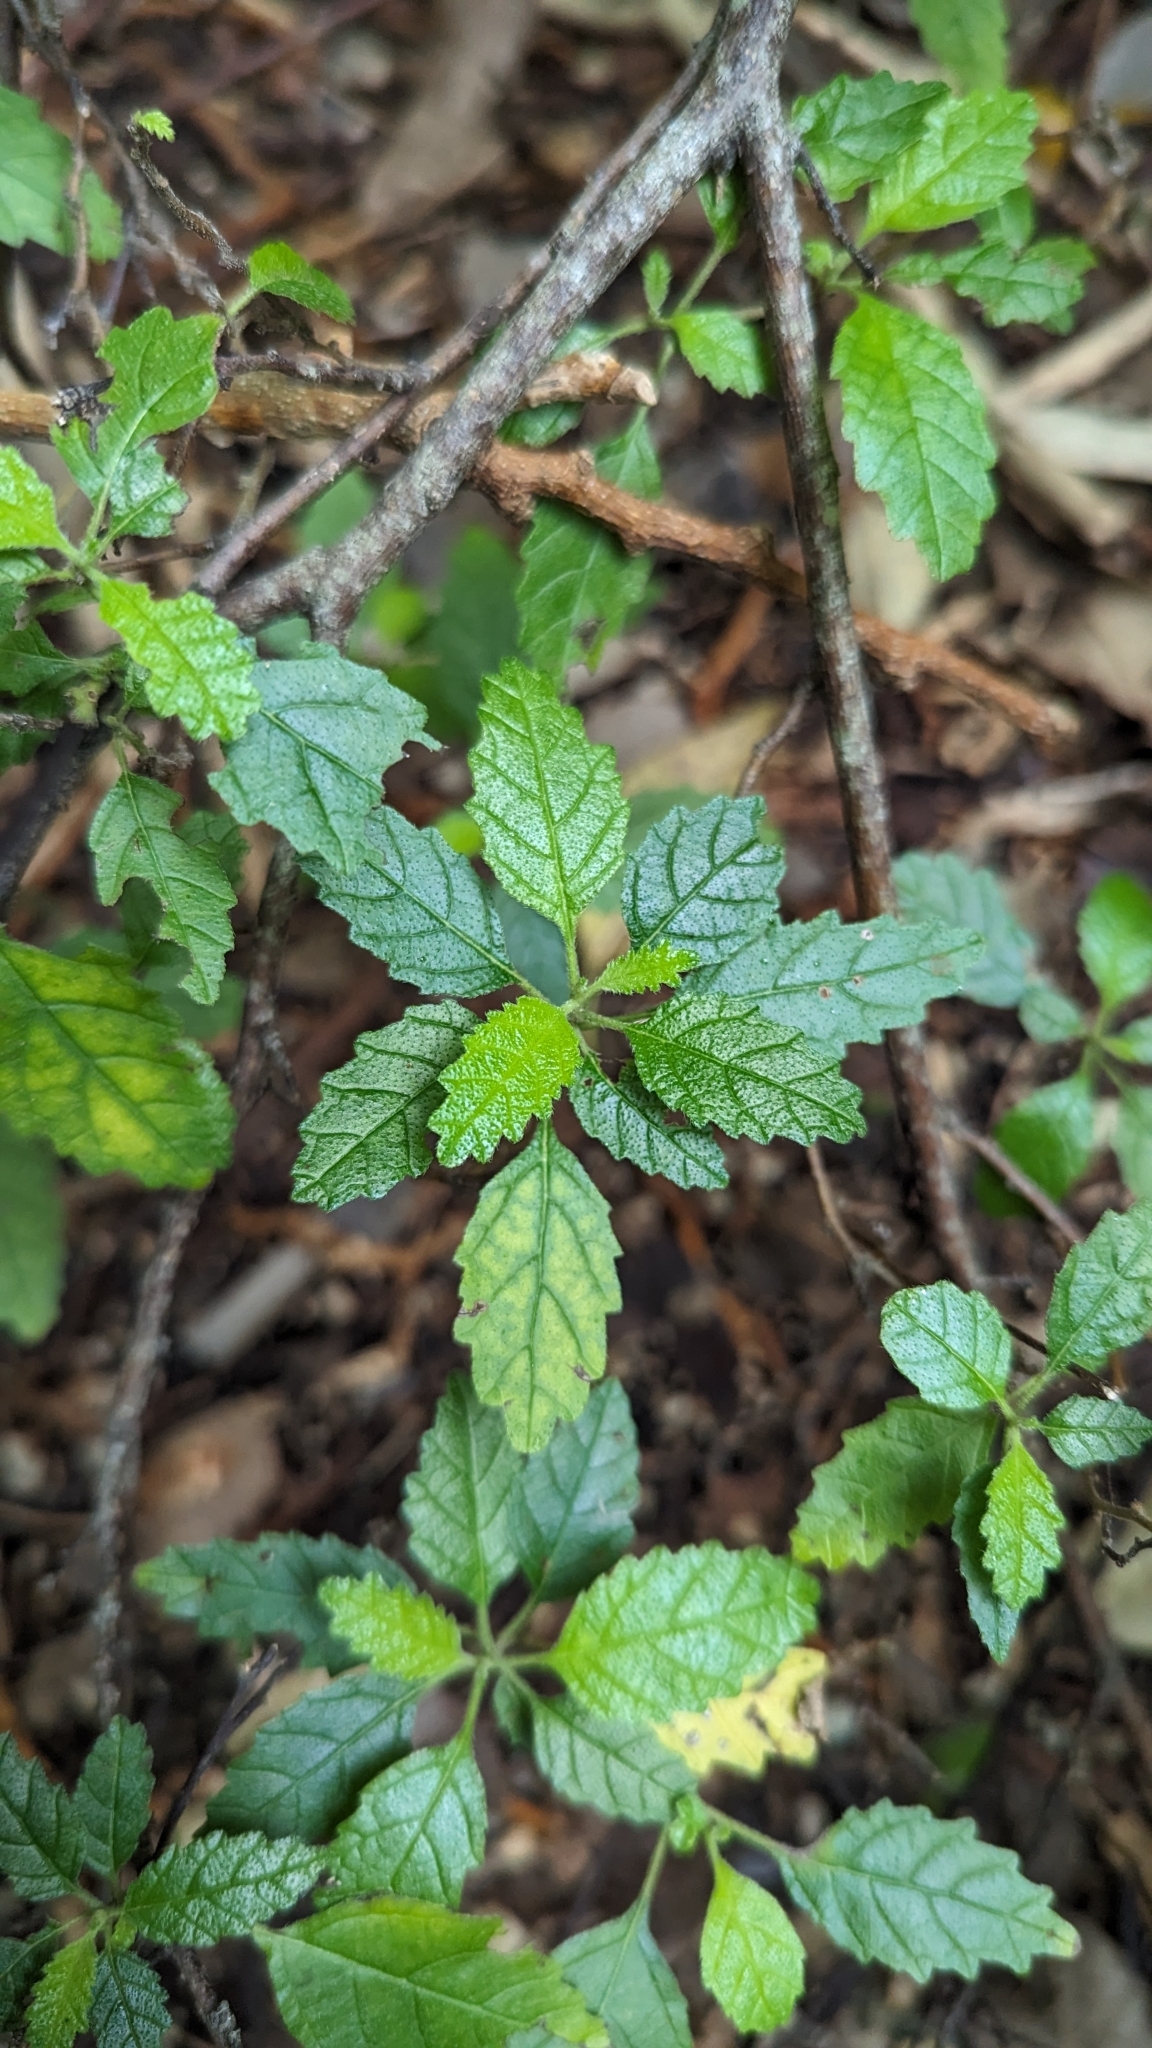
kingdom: Plantae
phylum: Tracheophyta
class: Magnoliopsida
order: Boraginales
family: Cordiaceae
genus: Varronia
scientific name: Varronia bullata
